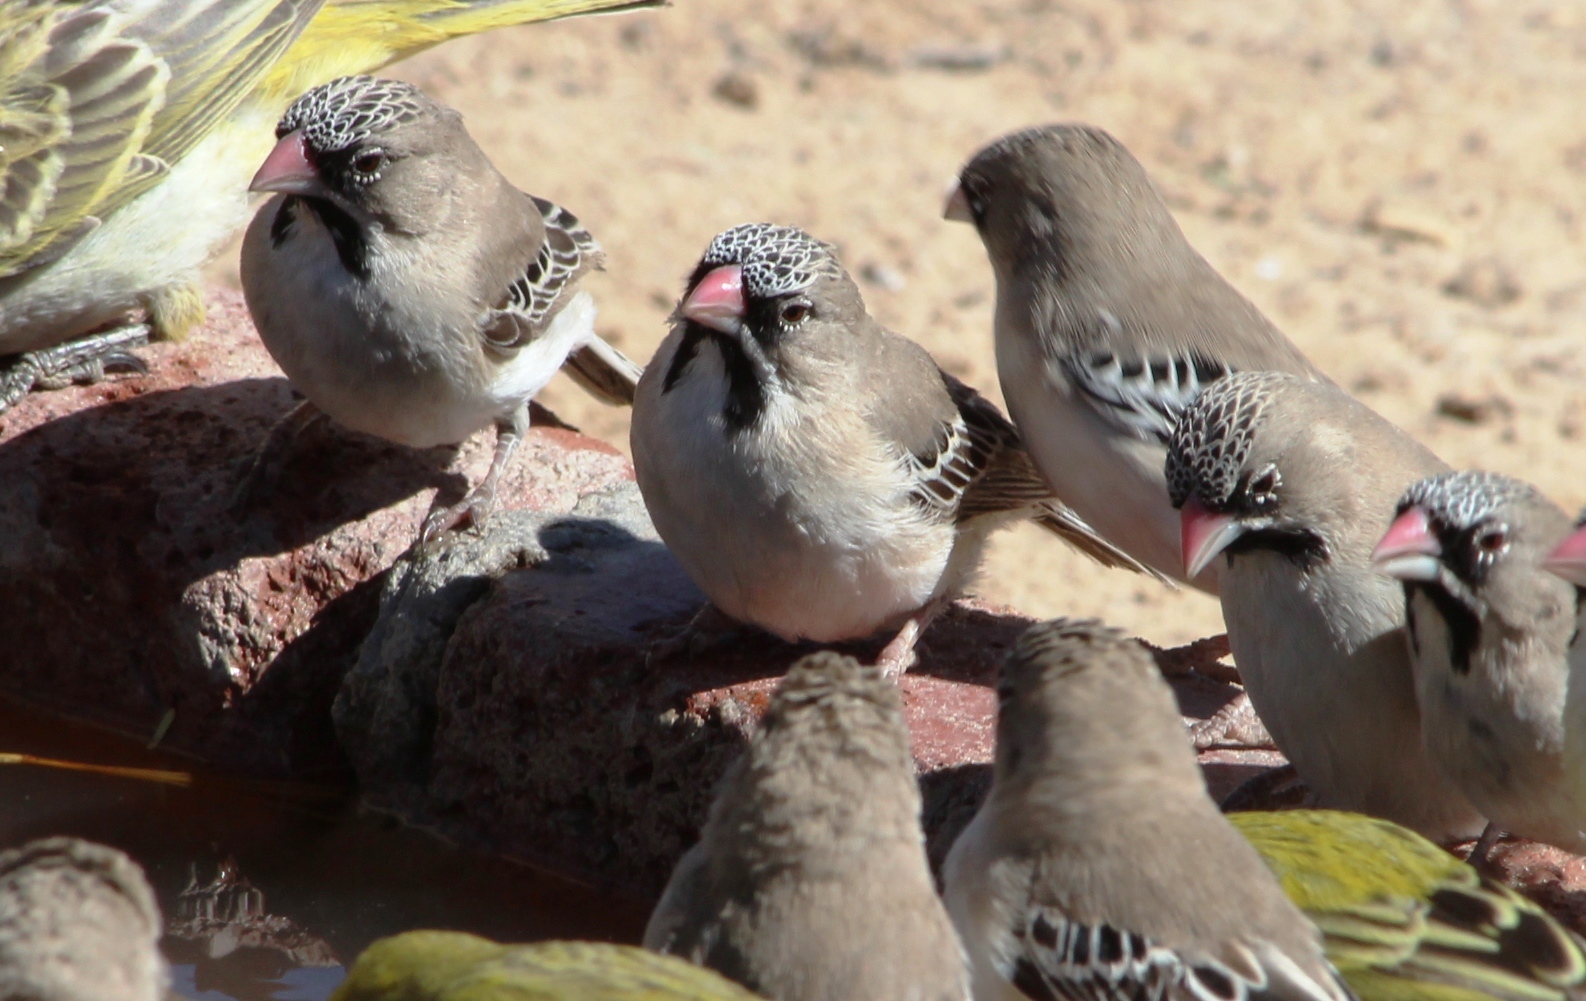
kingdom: Animalia
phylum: Chordata
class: Aves
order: Passeriformes
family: Ploceidae
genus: Sporopipes
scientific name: Sporopipes squamifrons
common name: Scaly-feathered weaver
